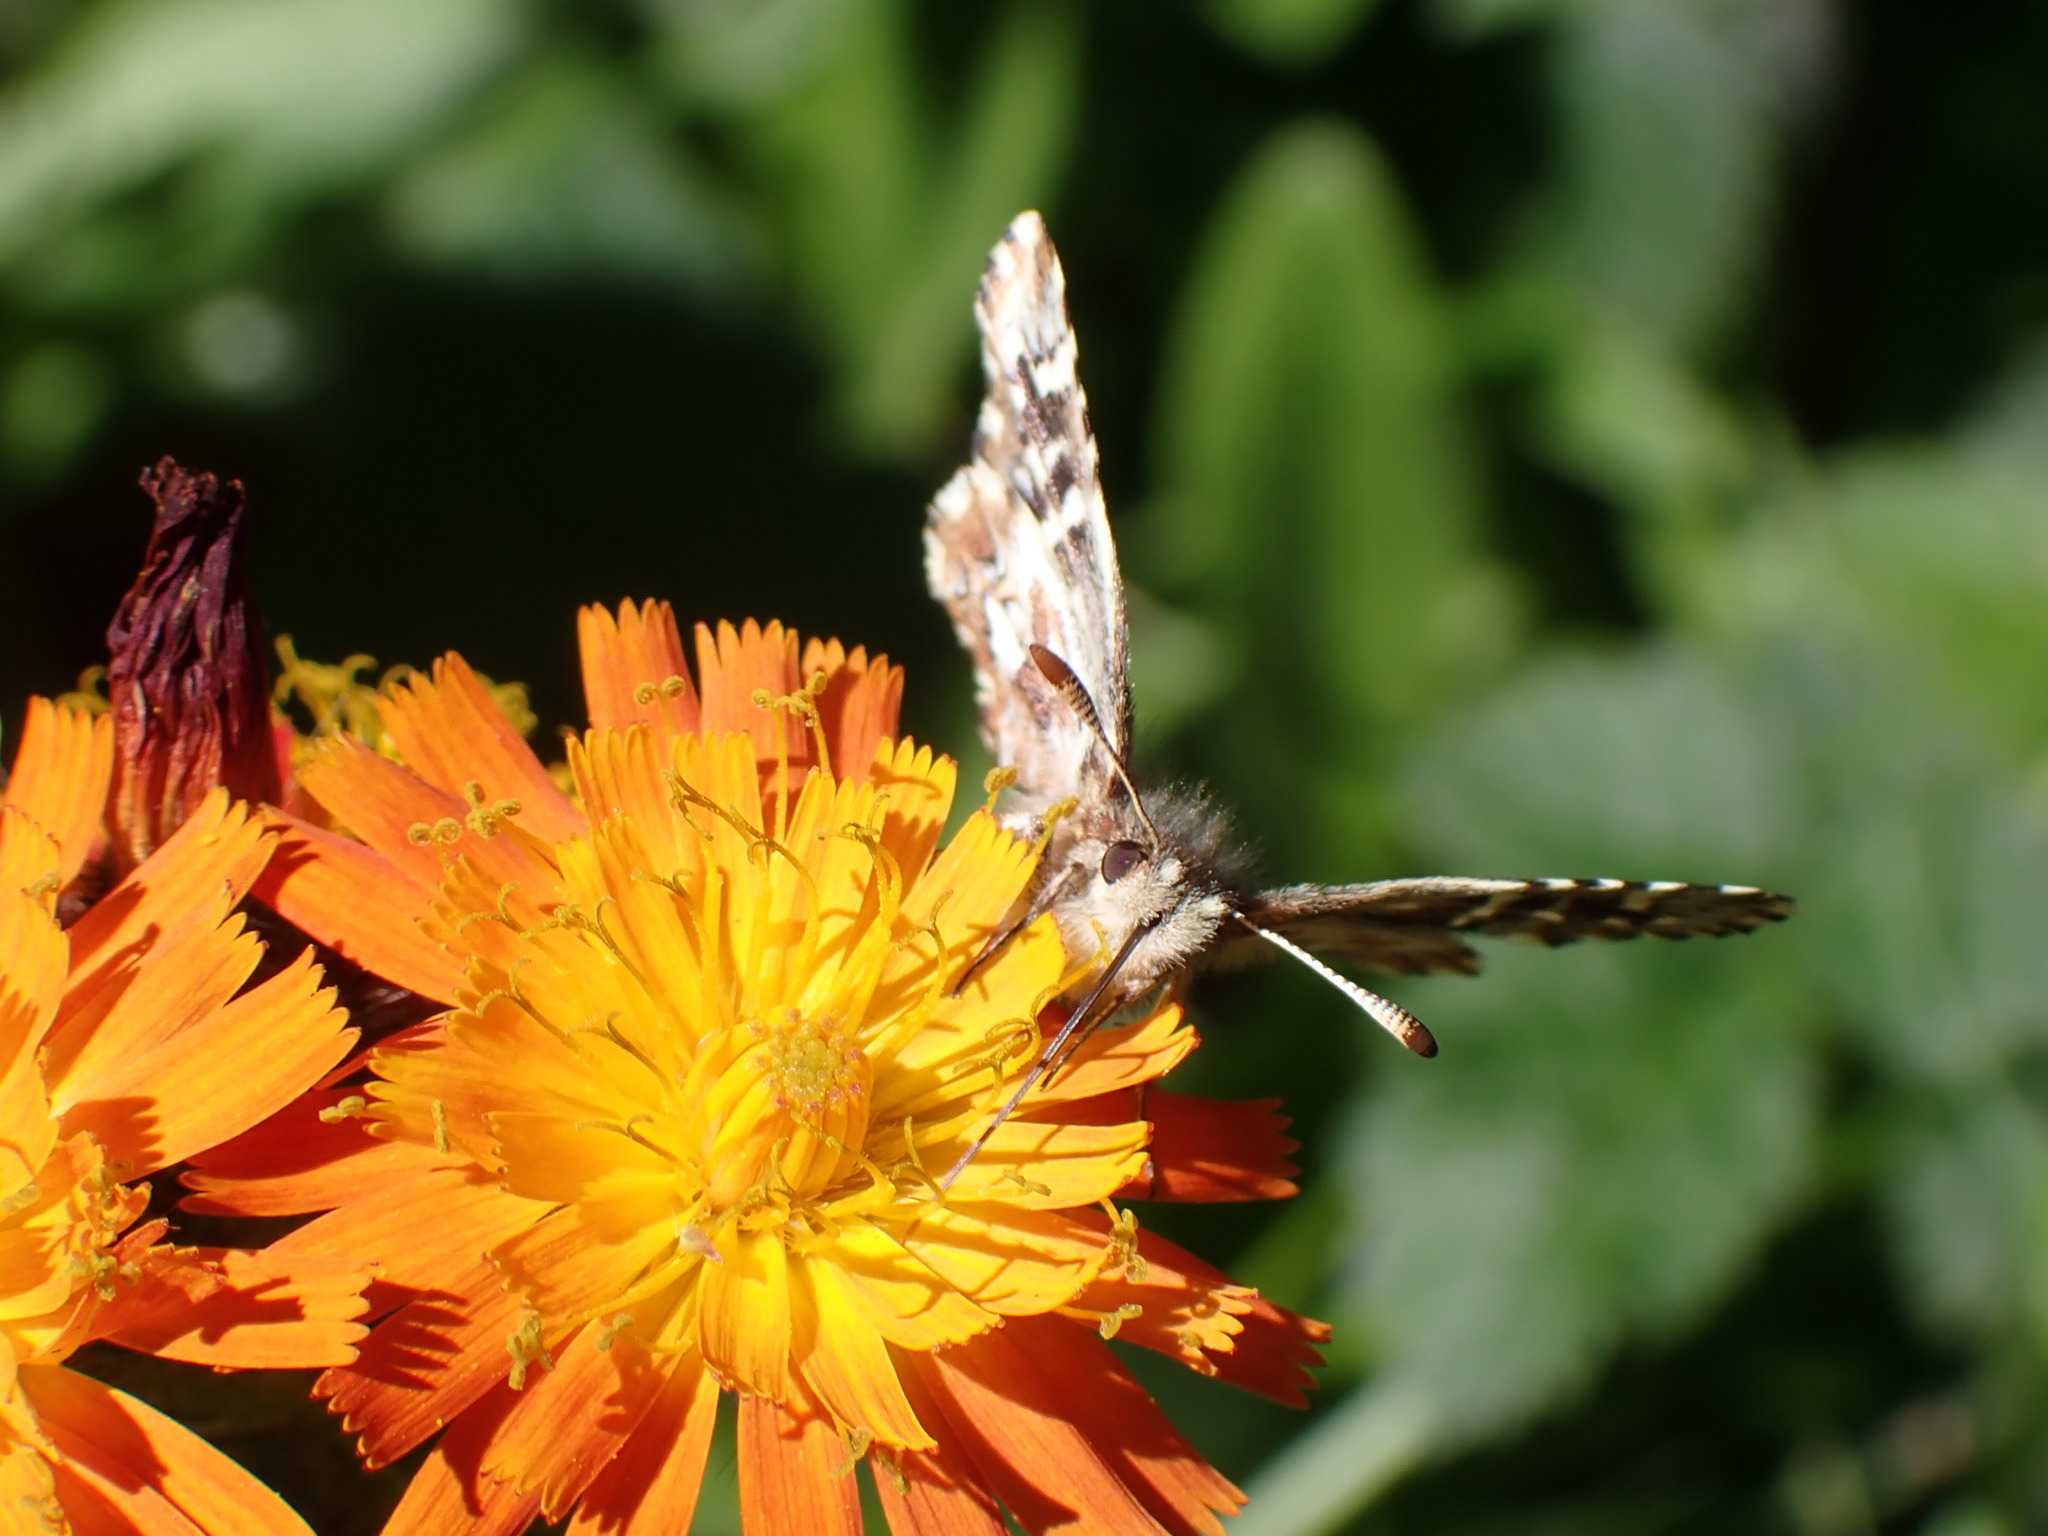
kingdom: Animalia
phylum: Arthropoda
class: Insecta
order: Lepidoptera
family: Hesperiidae
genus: Pyrgus
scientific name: Pyrgus ruralis
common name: Two-banded checkered-skipper
